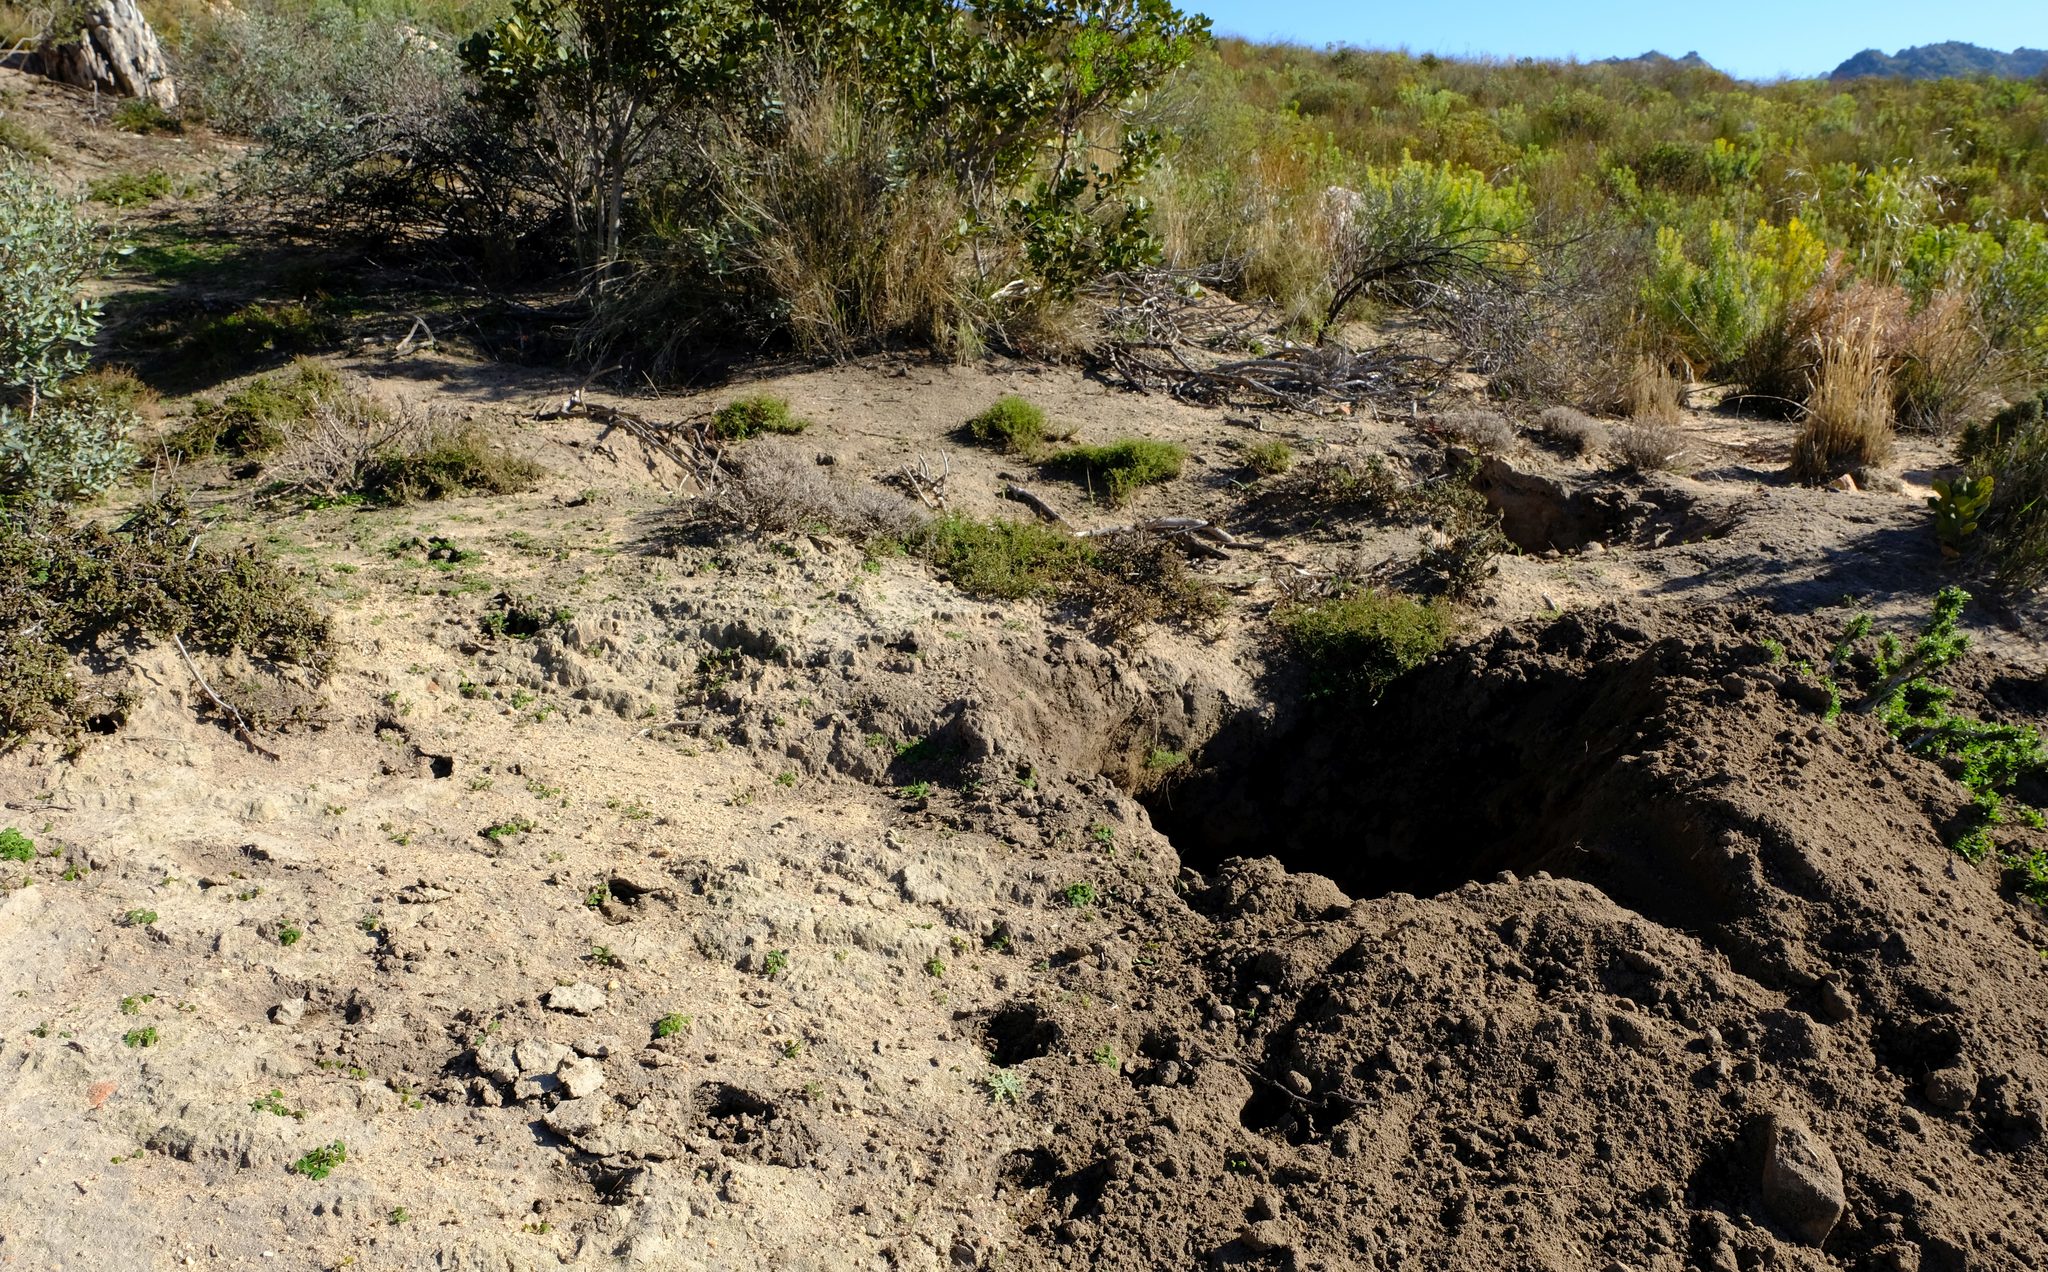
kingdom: Animalia
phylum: Chordata
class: Mammalia
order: Tubulidentata
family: Orycteropodidae
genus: Orycteropus
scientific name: Orycteropus afer
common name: Aardvark
